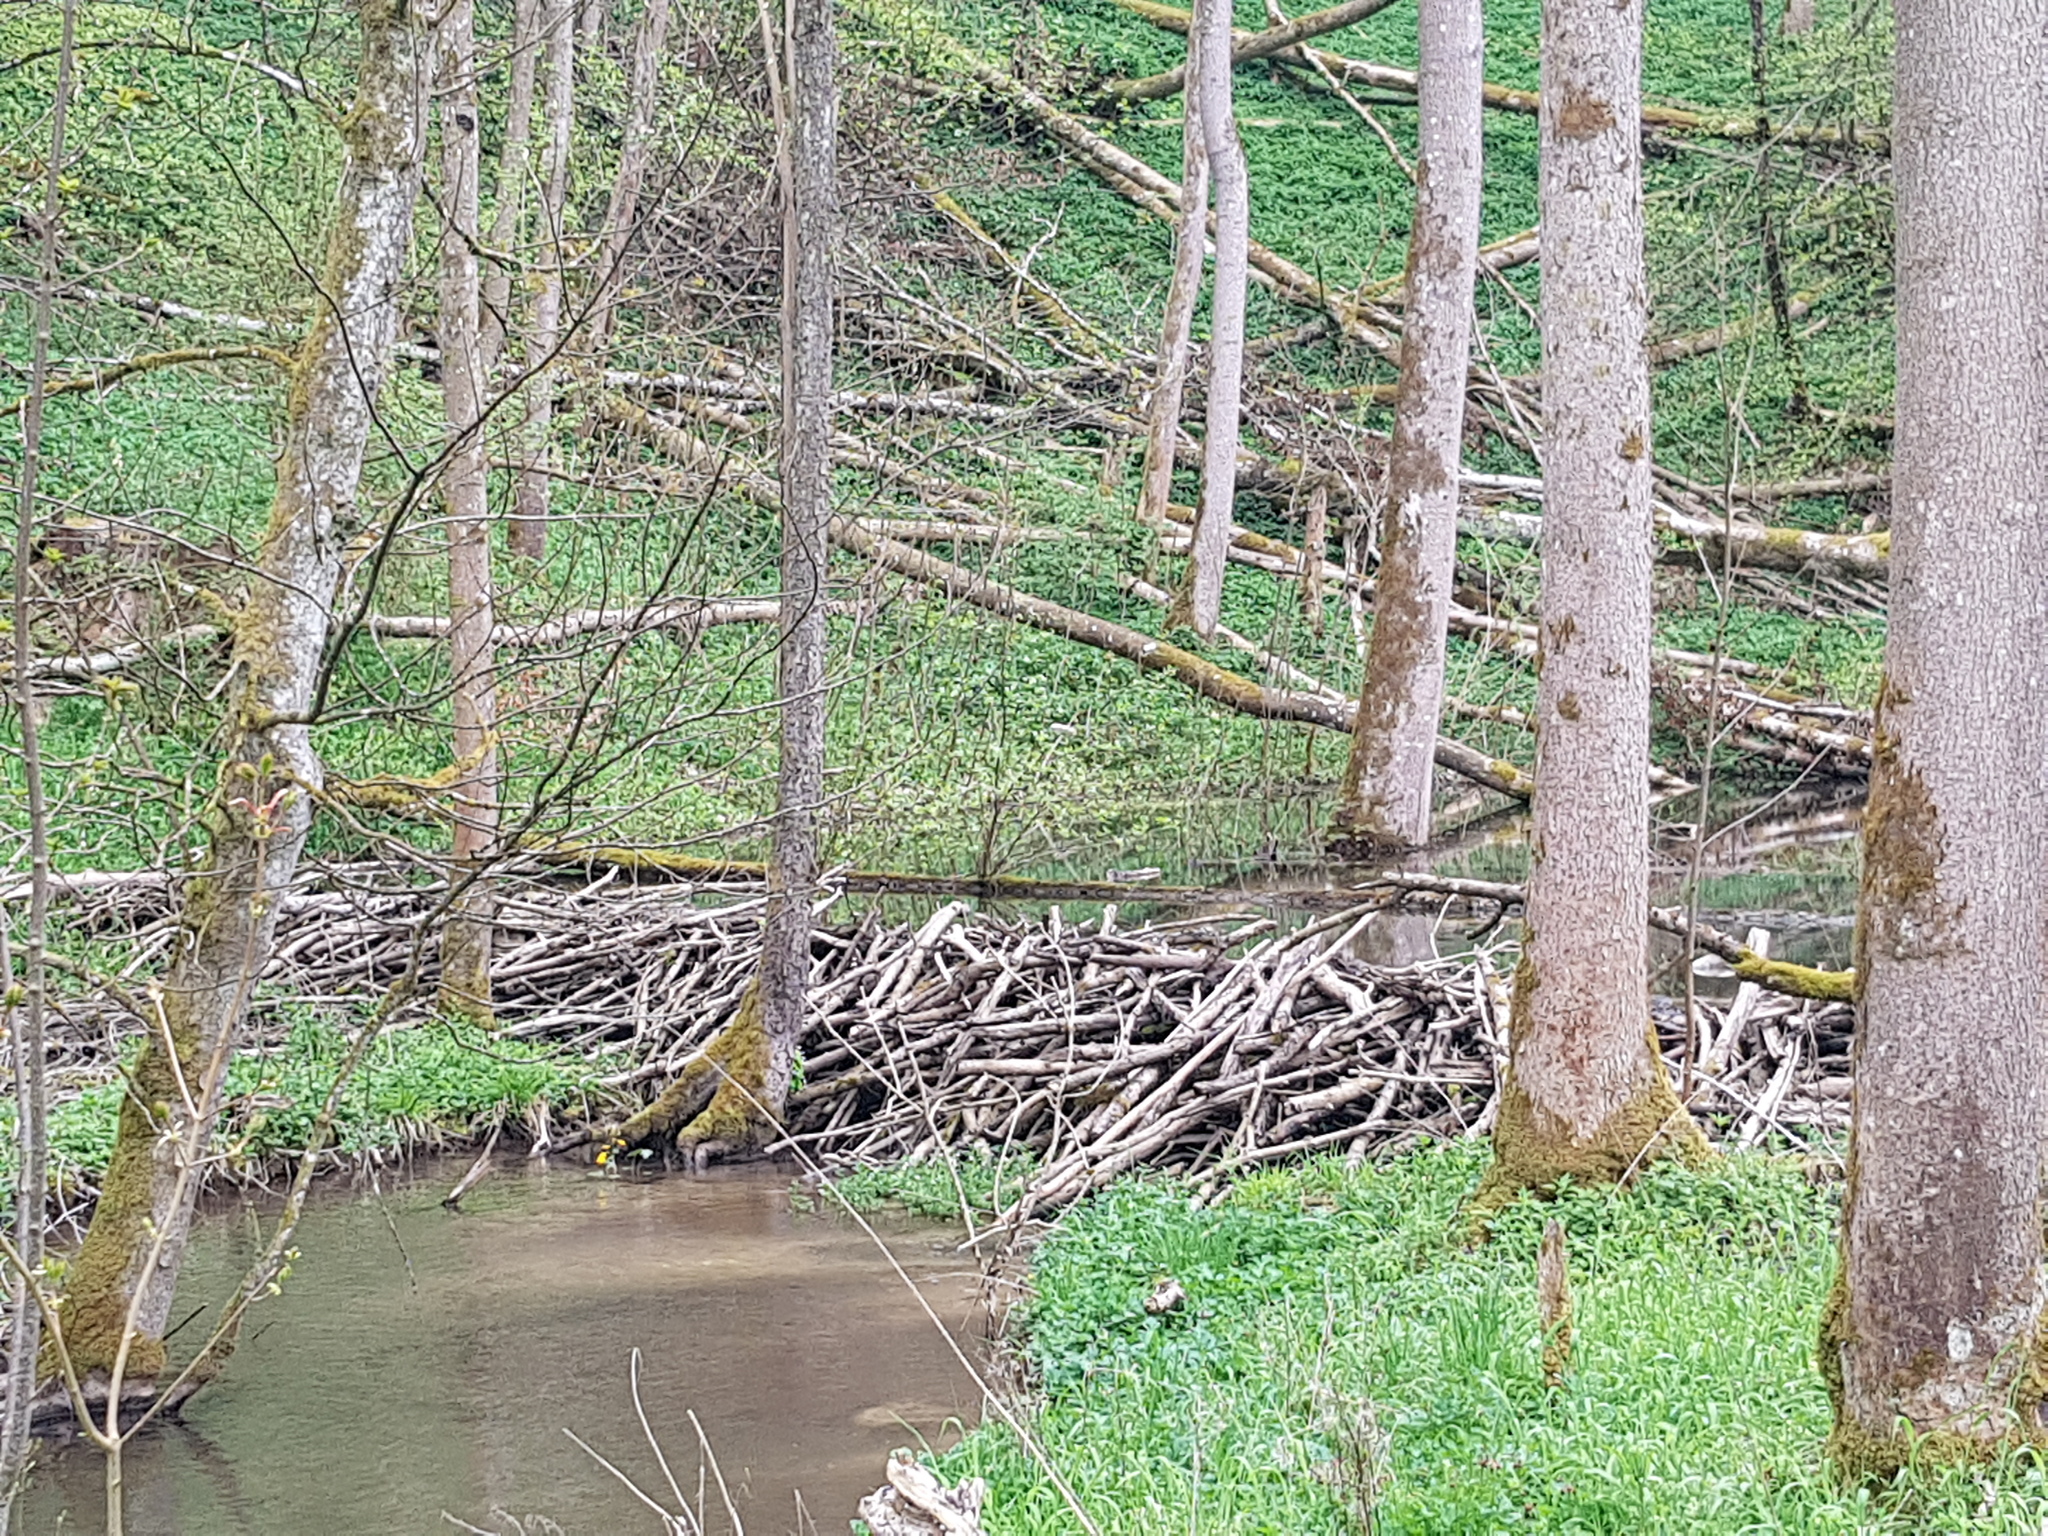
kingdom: Animalia
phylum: Chordata
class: Mammalia
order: Rodentia
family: Castoridae
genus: Castor
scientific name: Castor fiber
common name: Eurasian beaver
